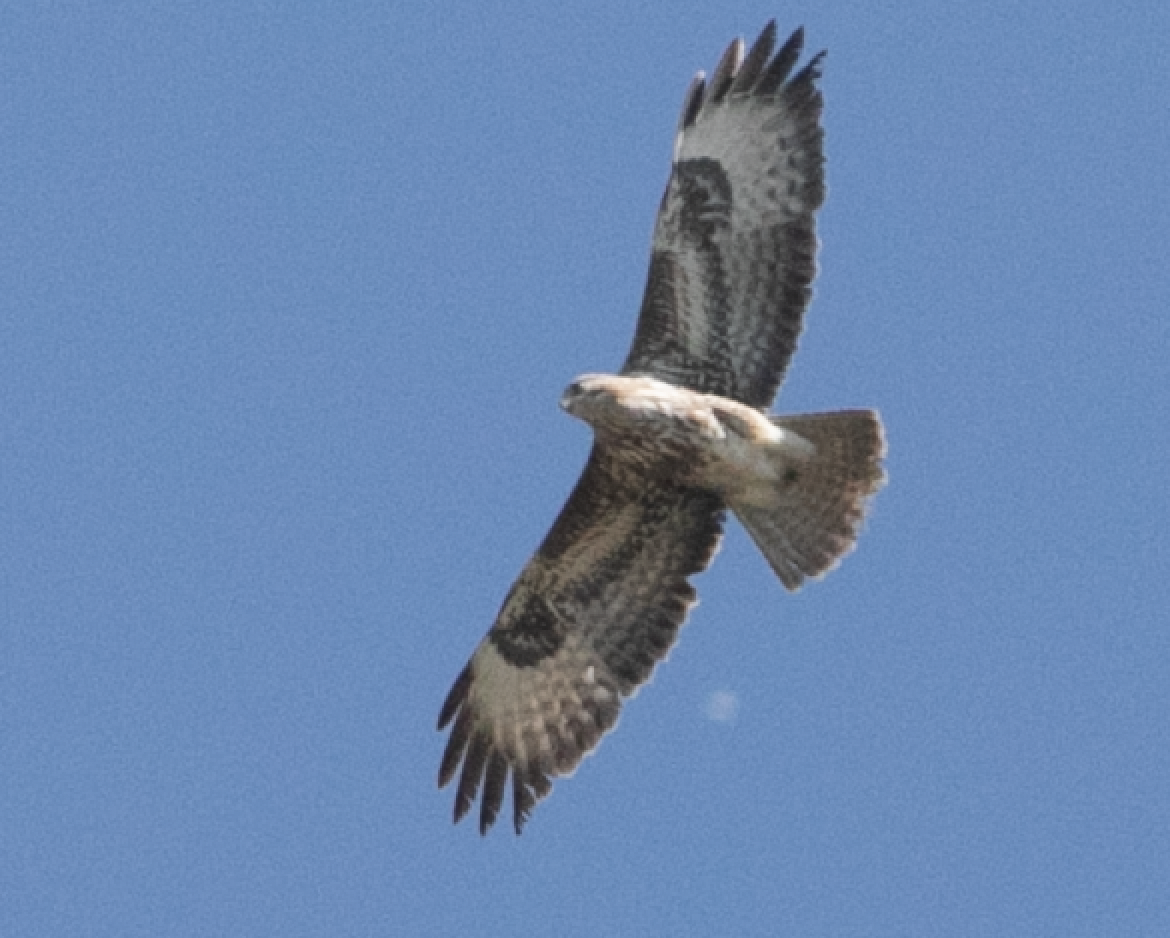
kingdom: Animalia
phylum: Chordata
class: Aves
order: Accipitriformes
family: Accipitridae
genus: Buteo
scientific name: Buteo buteo
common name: Common buzzard
